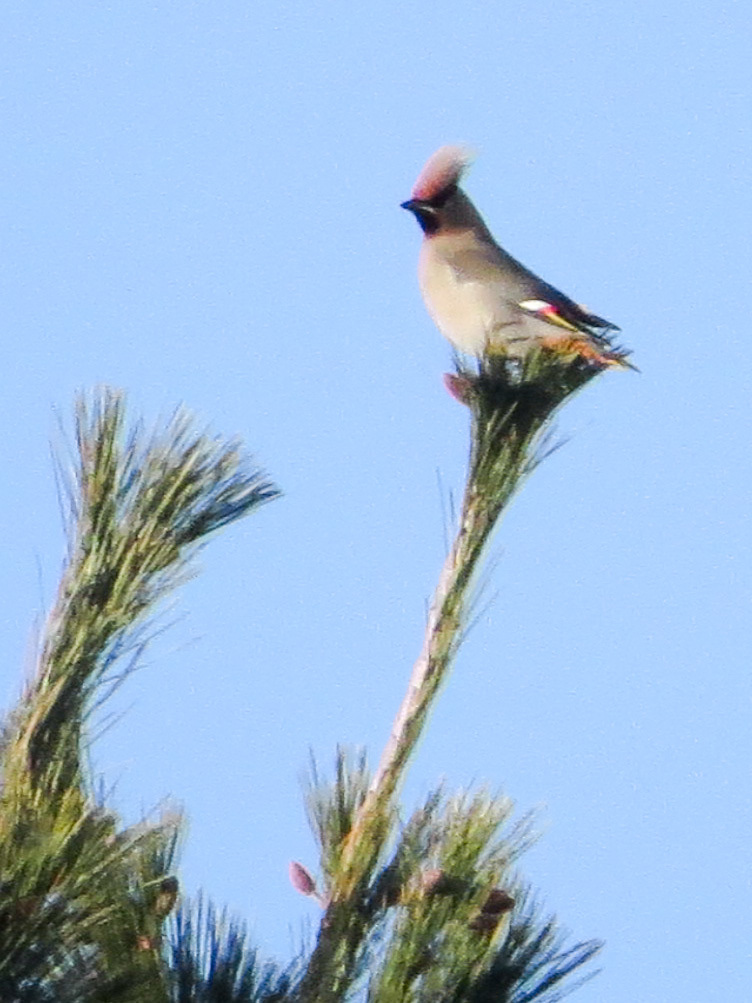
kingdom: Animalia
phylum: Chordata
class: Aves
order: Passeriformes
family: Bombycillidae
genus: Bombycilla
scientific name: Bombycilla garrulus
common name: Bohemian waxwing
